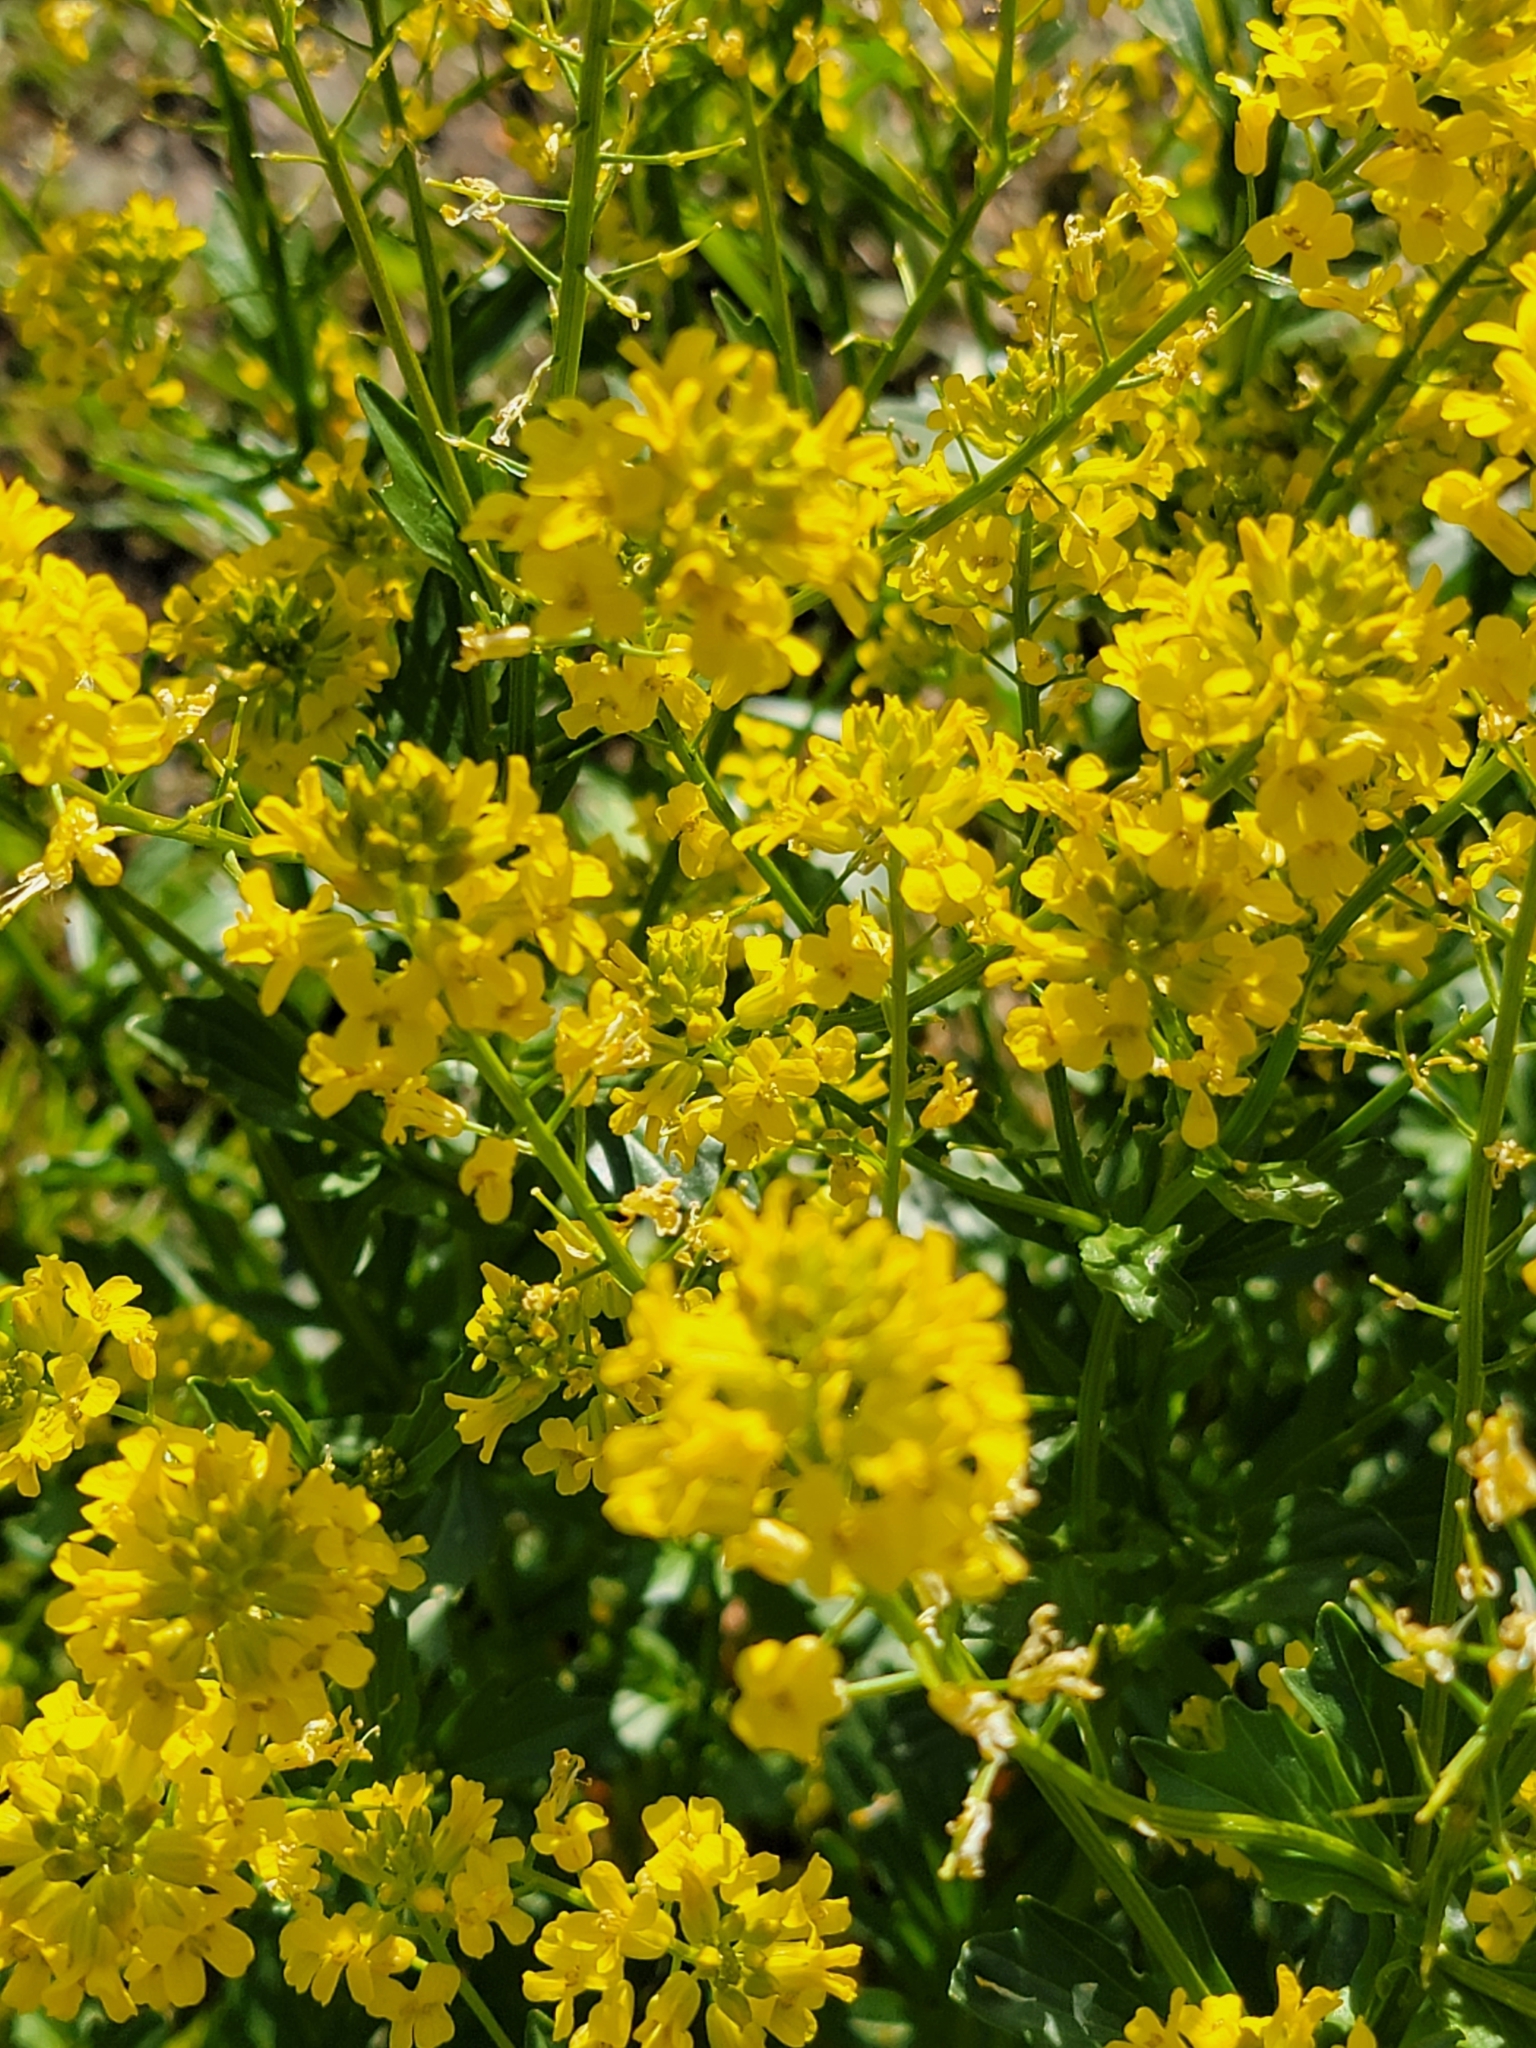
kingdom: Plantae
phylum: Tracheophyta
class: Magnoliopsida
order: Brassicales
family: Brassicaceae
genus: Barbarea
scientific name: Barbarea vulgaris
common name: Cressy-greens
